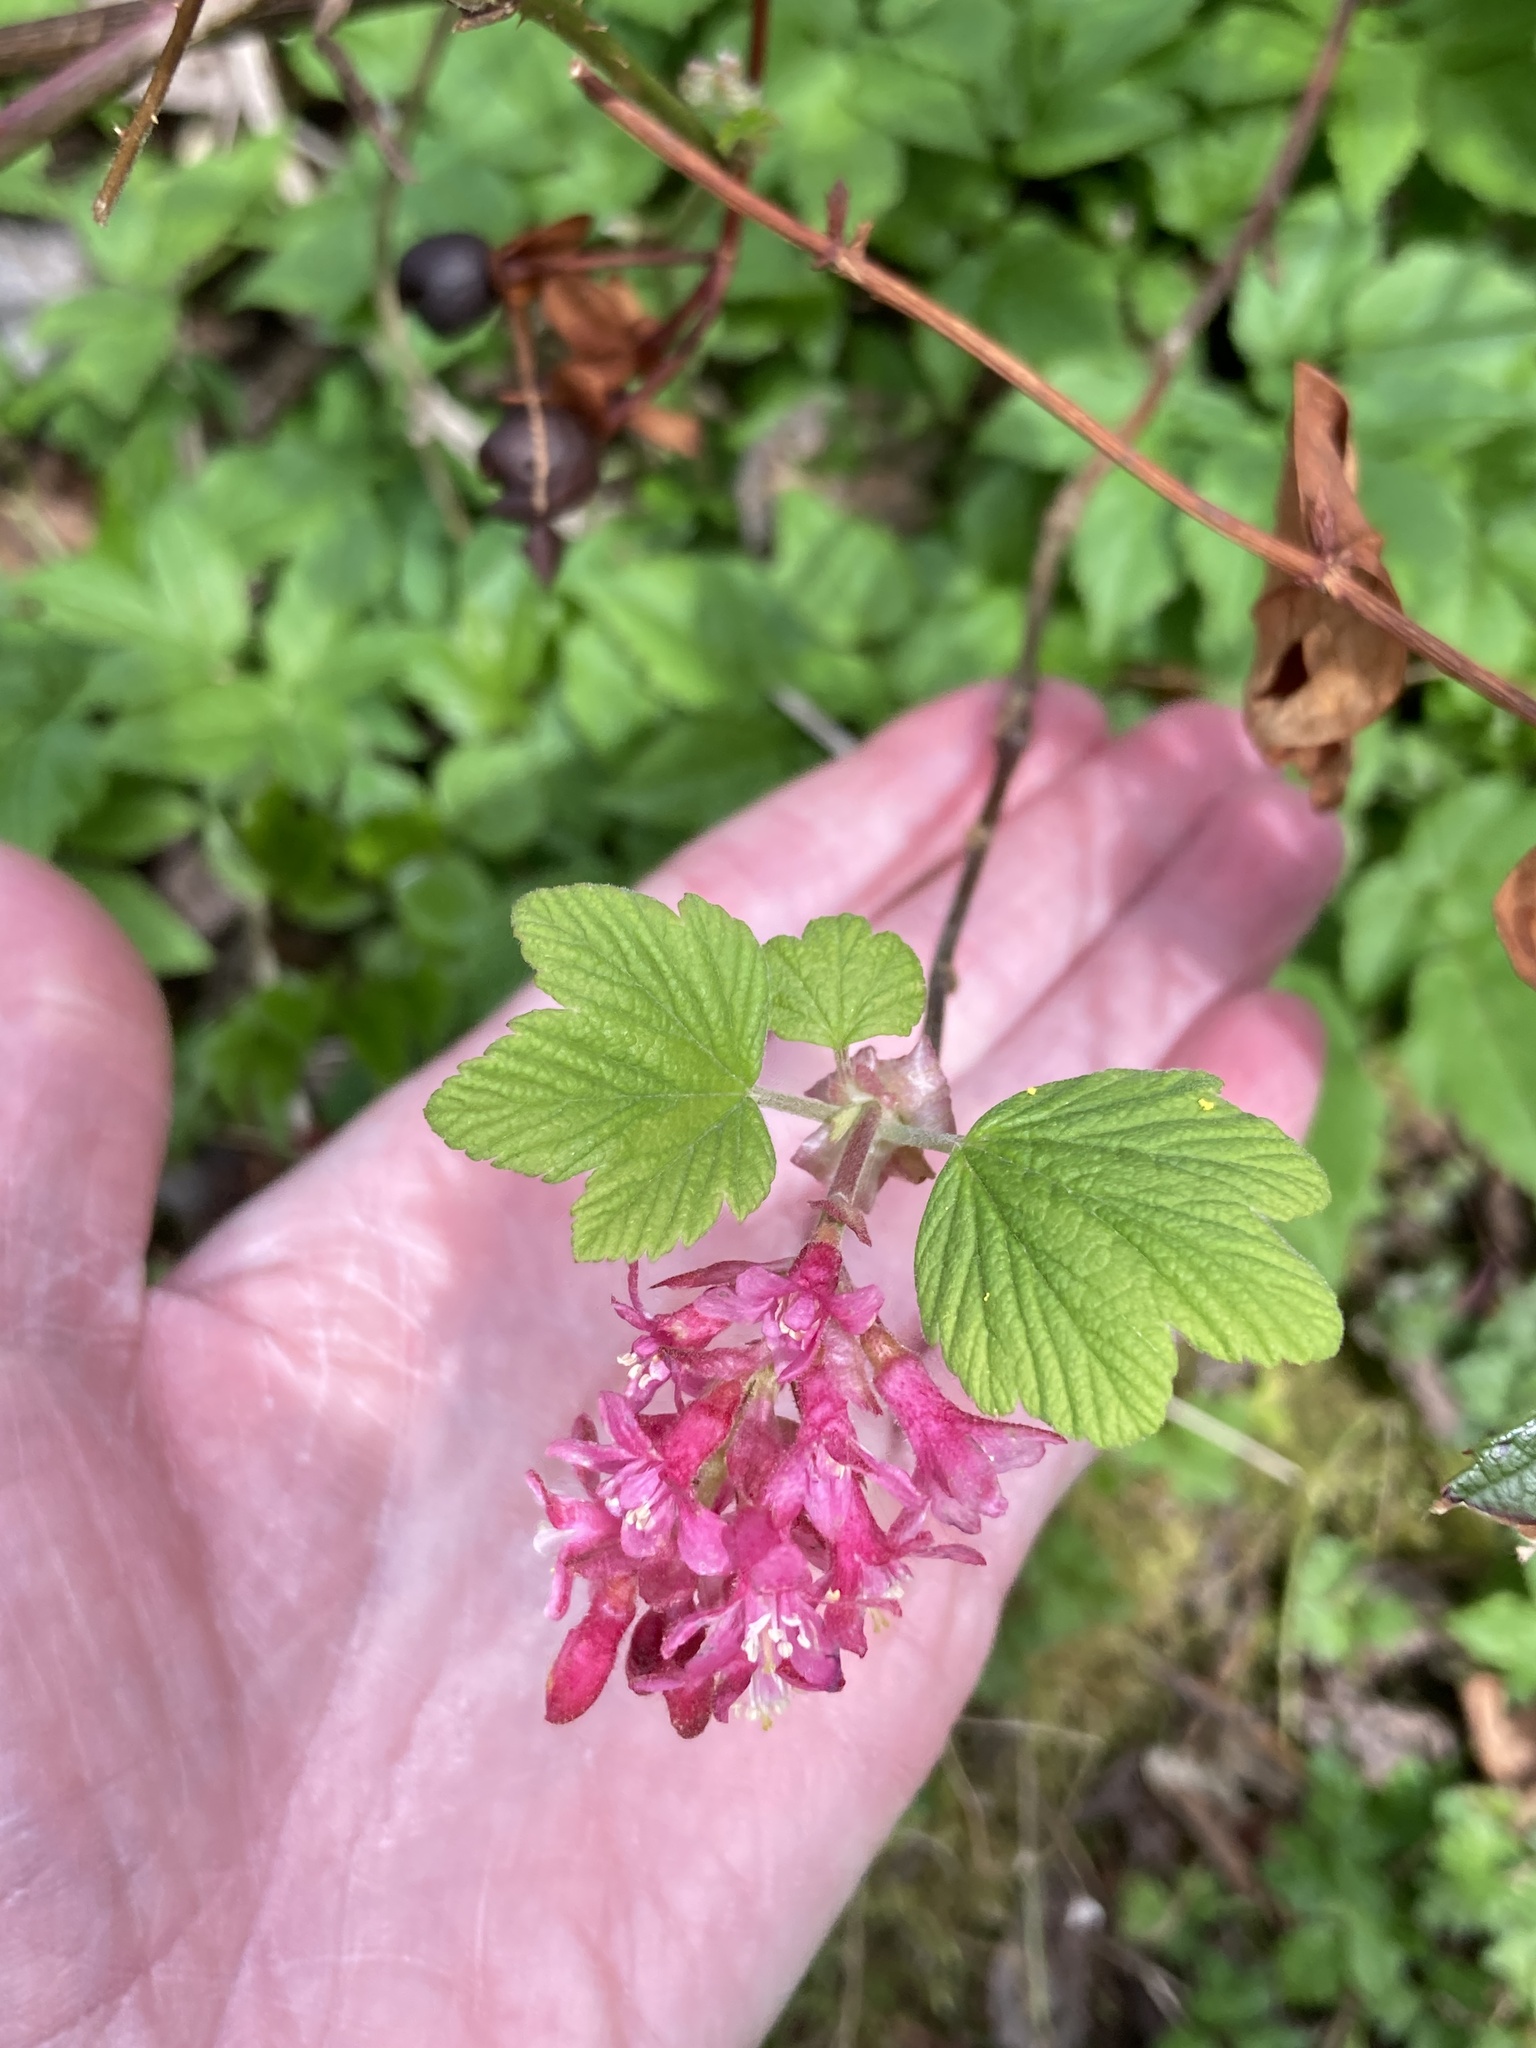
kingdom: Plantae
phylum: Tracheophyta
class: Magnoliopsida
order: Saxifragales
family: Grossulariaceae
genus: Ribes
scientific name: Ribes sanguineum
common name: Flowering currant
